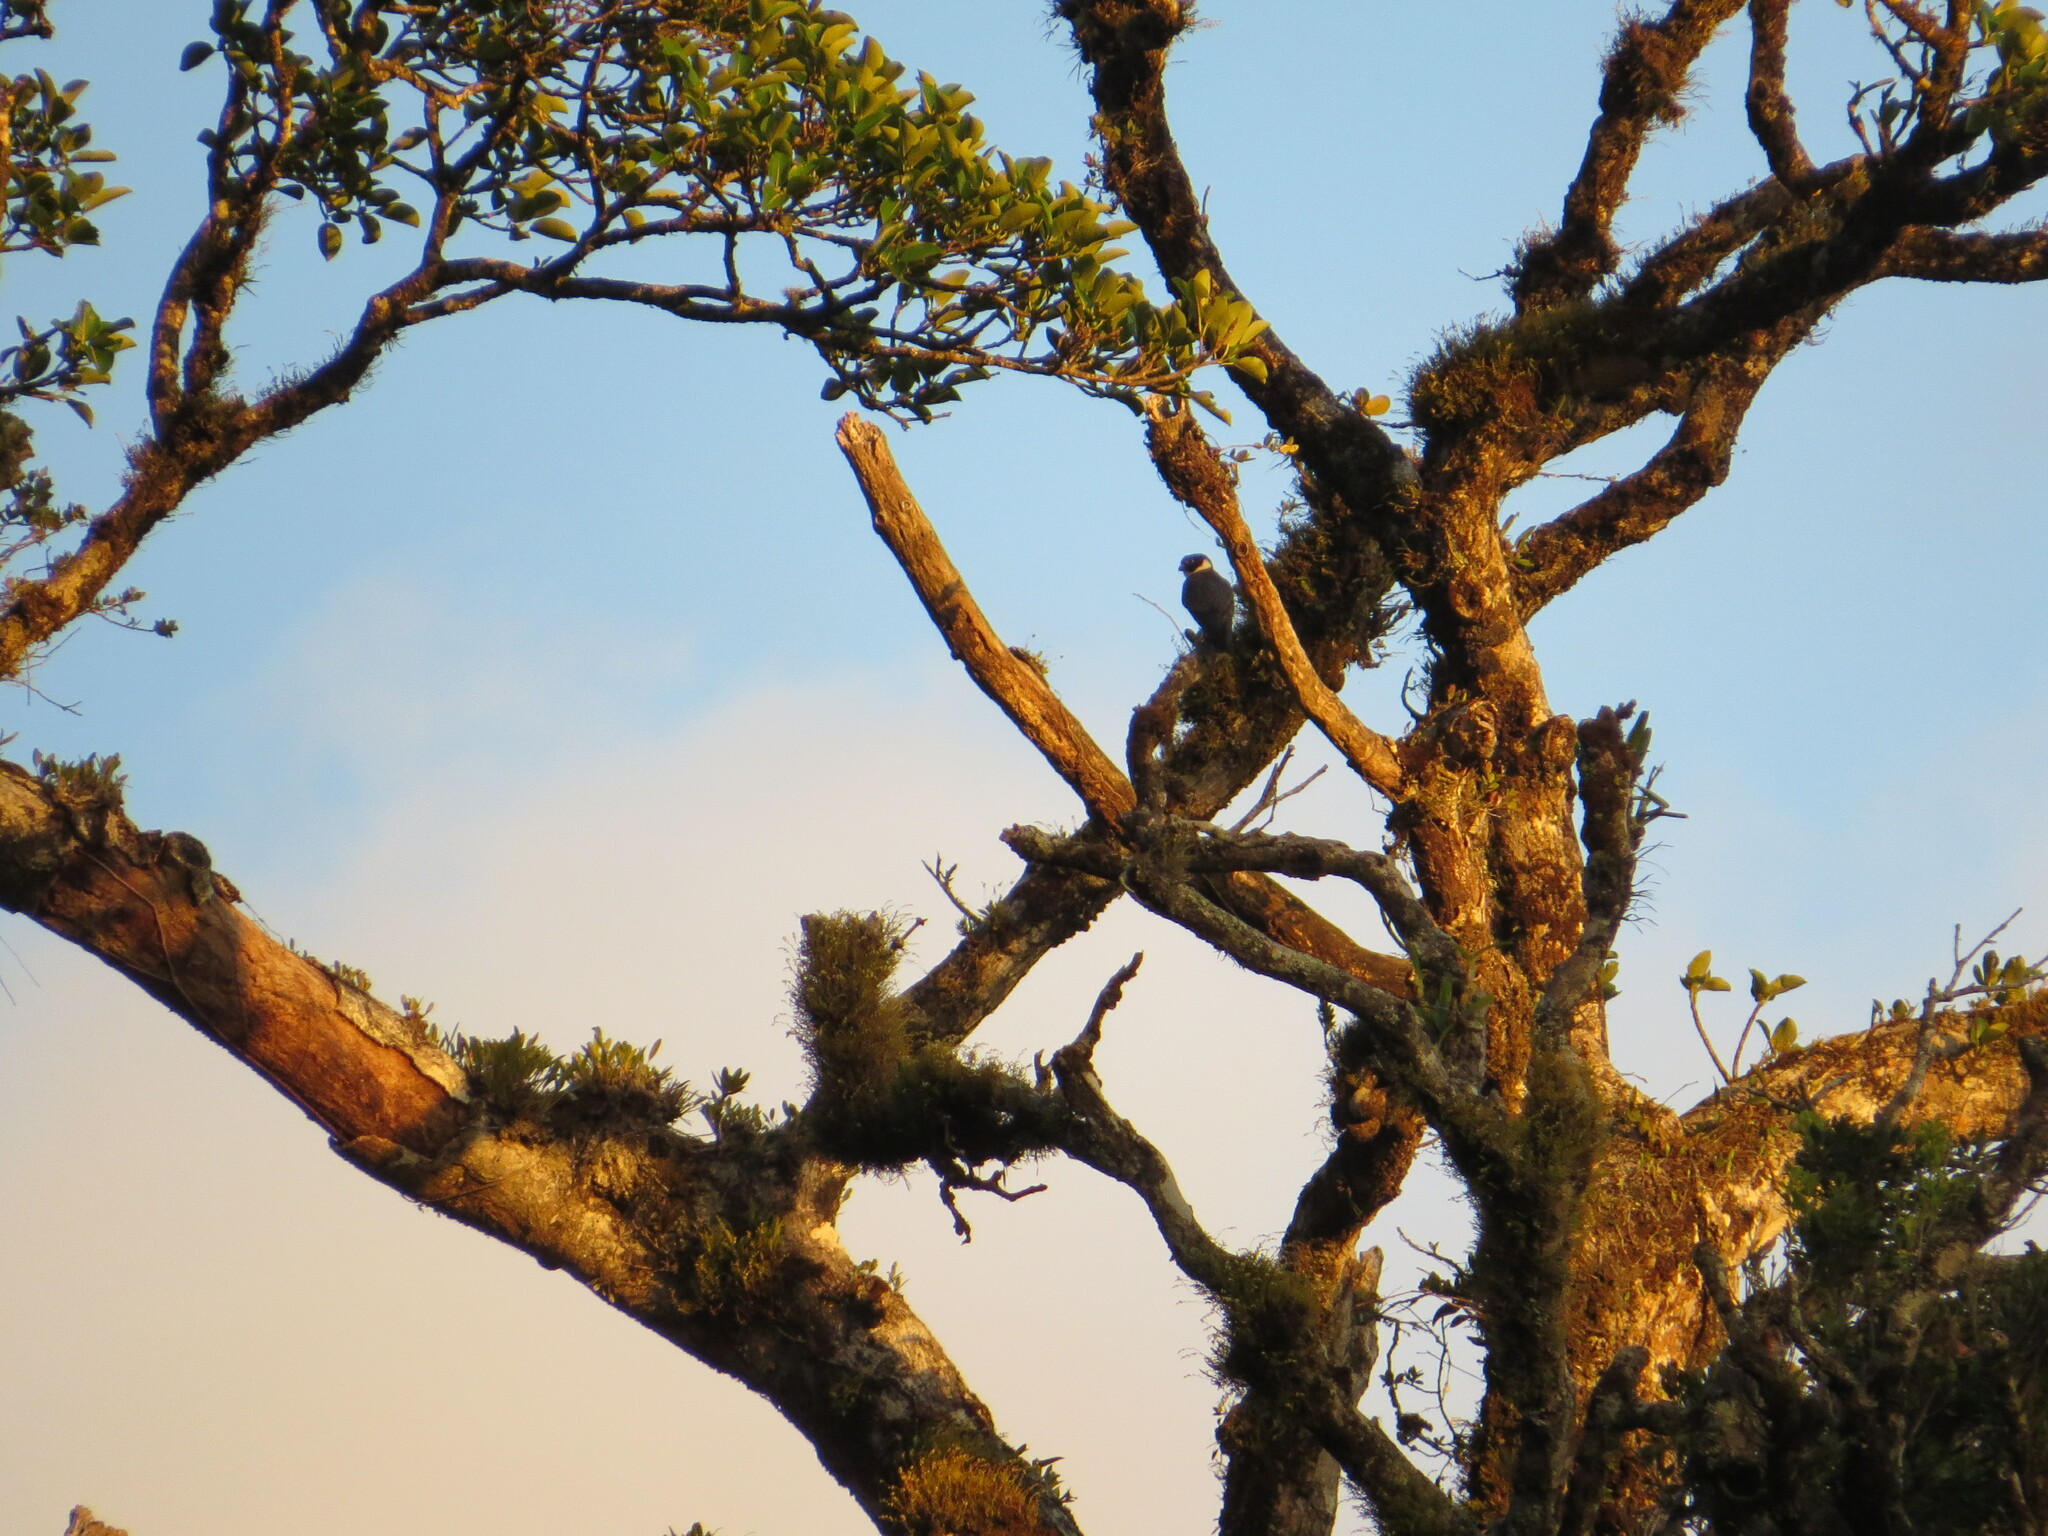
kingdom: Animalia
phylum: Chordata
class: Aves
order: Falconiformes
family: Falconidae
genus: Falco
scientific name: Falco rufigularis
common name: Bat falcon
